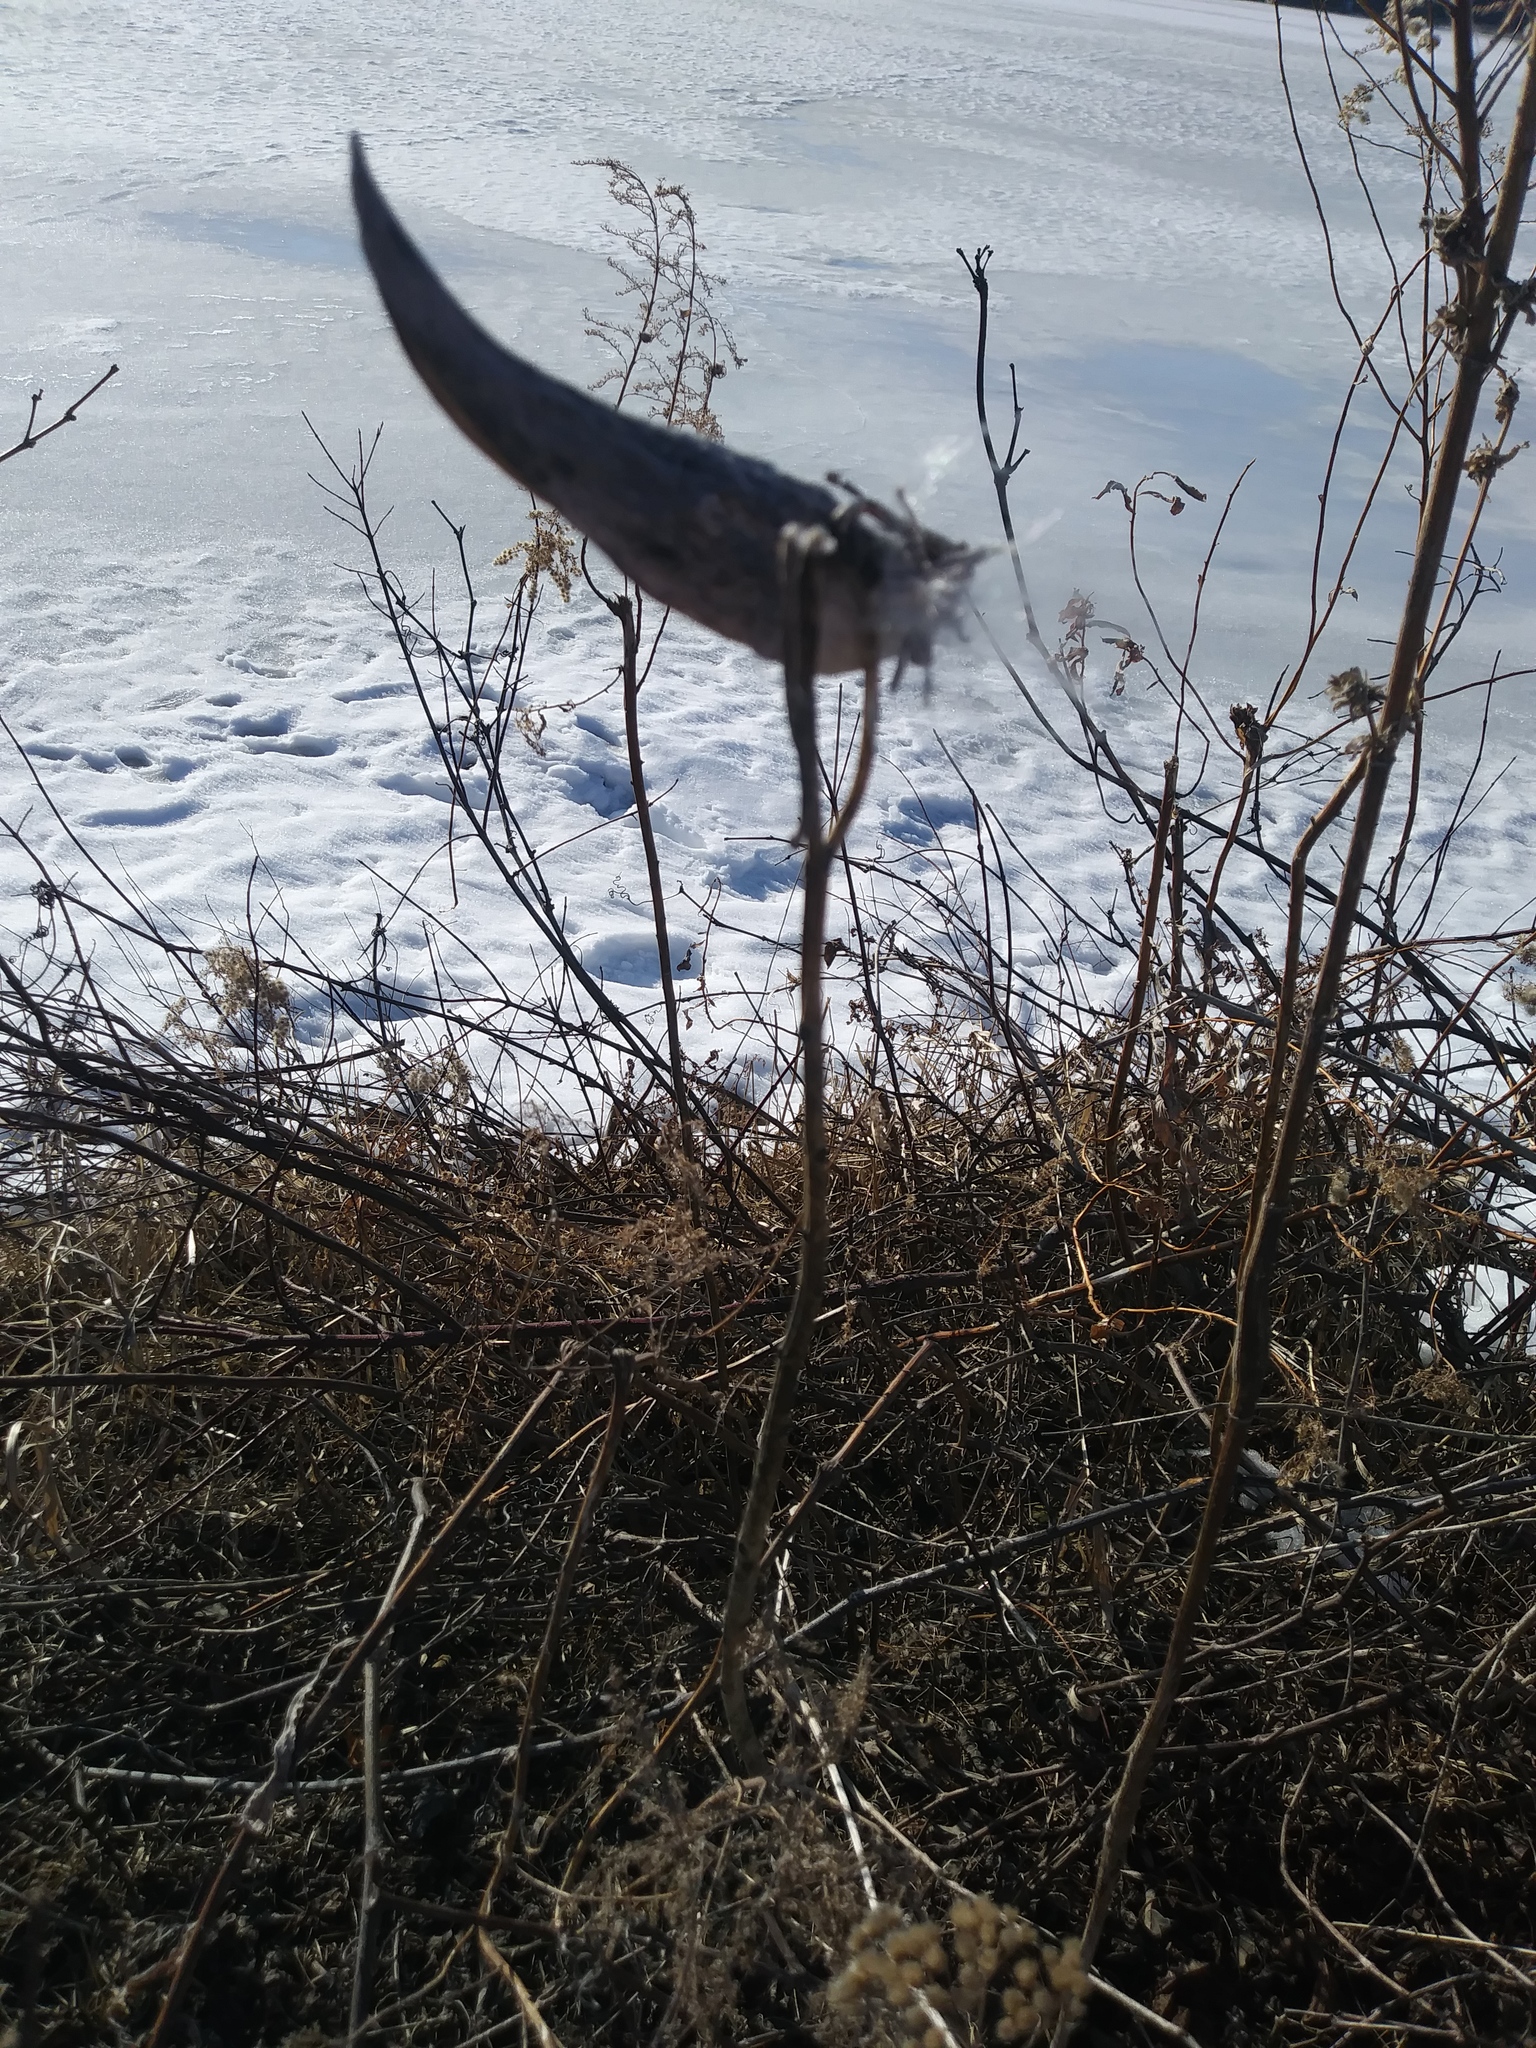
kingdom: Plantae
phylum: Tracheophyta
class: Magnoliopsida
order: Gentianales
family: Apocynaceae
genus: Asclepias
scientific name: Asclepias syriaca
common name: Common milkweed
